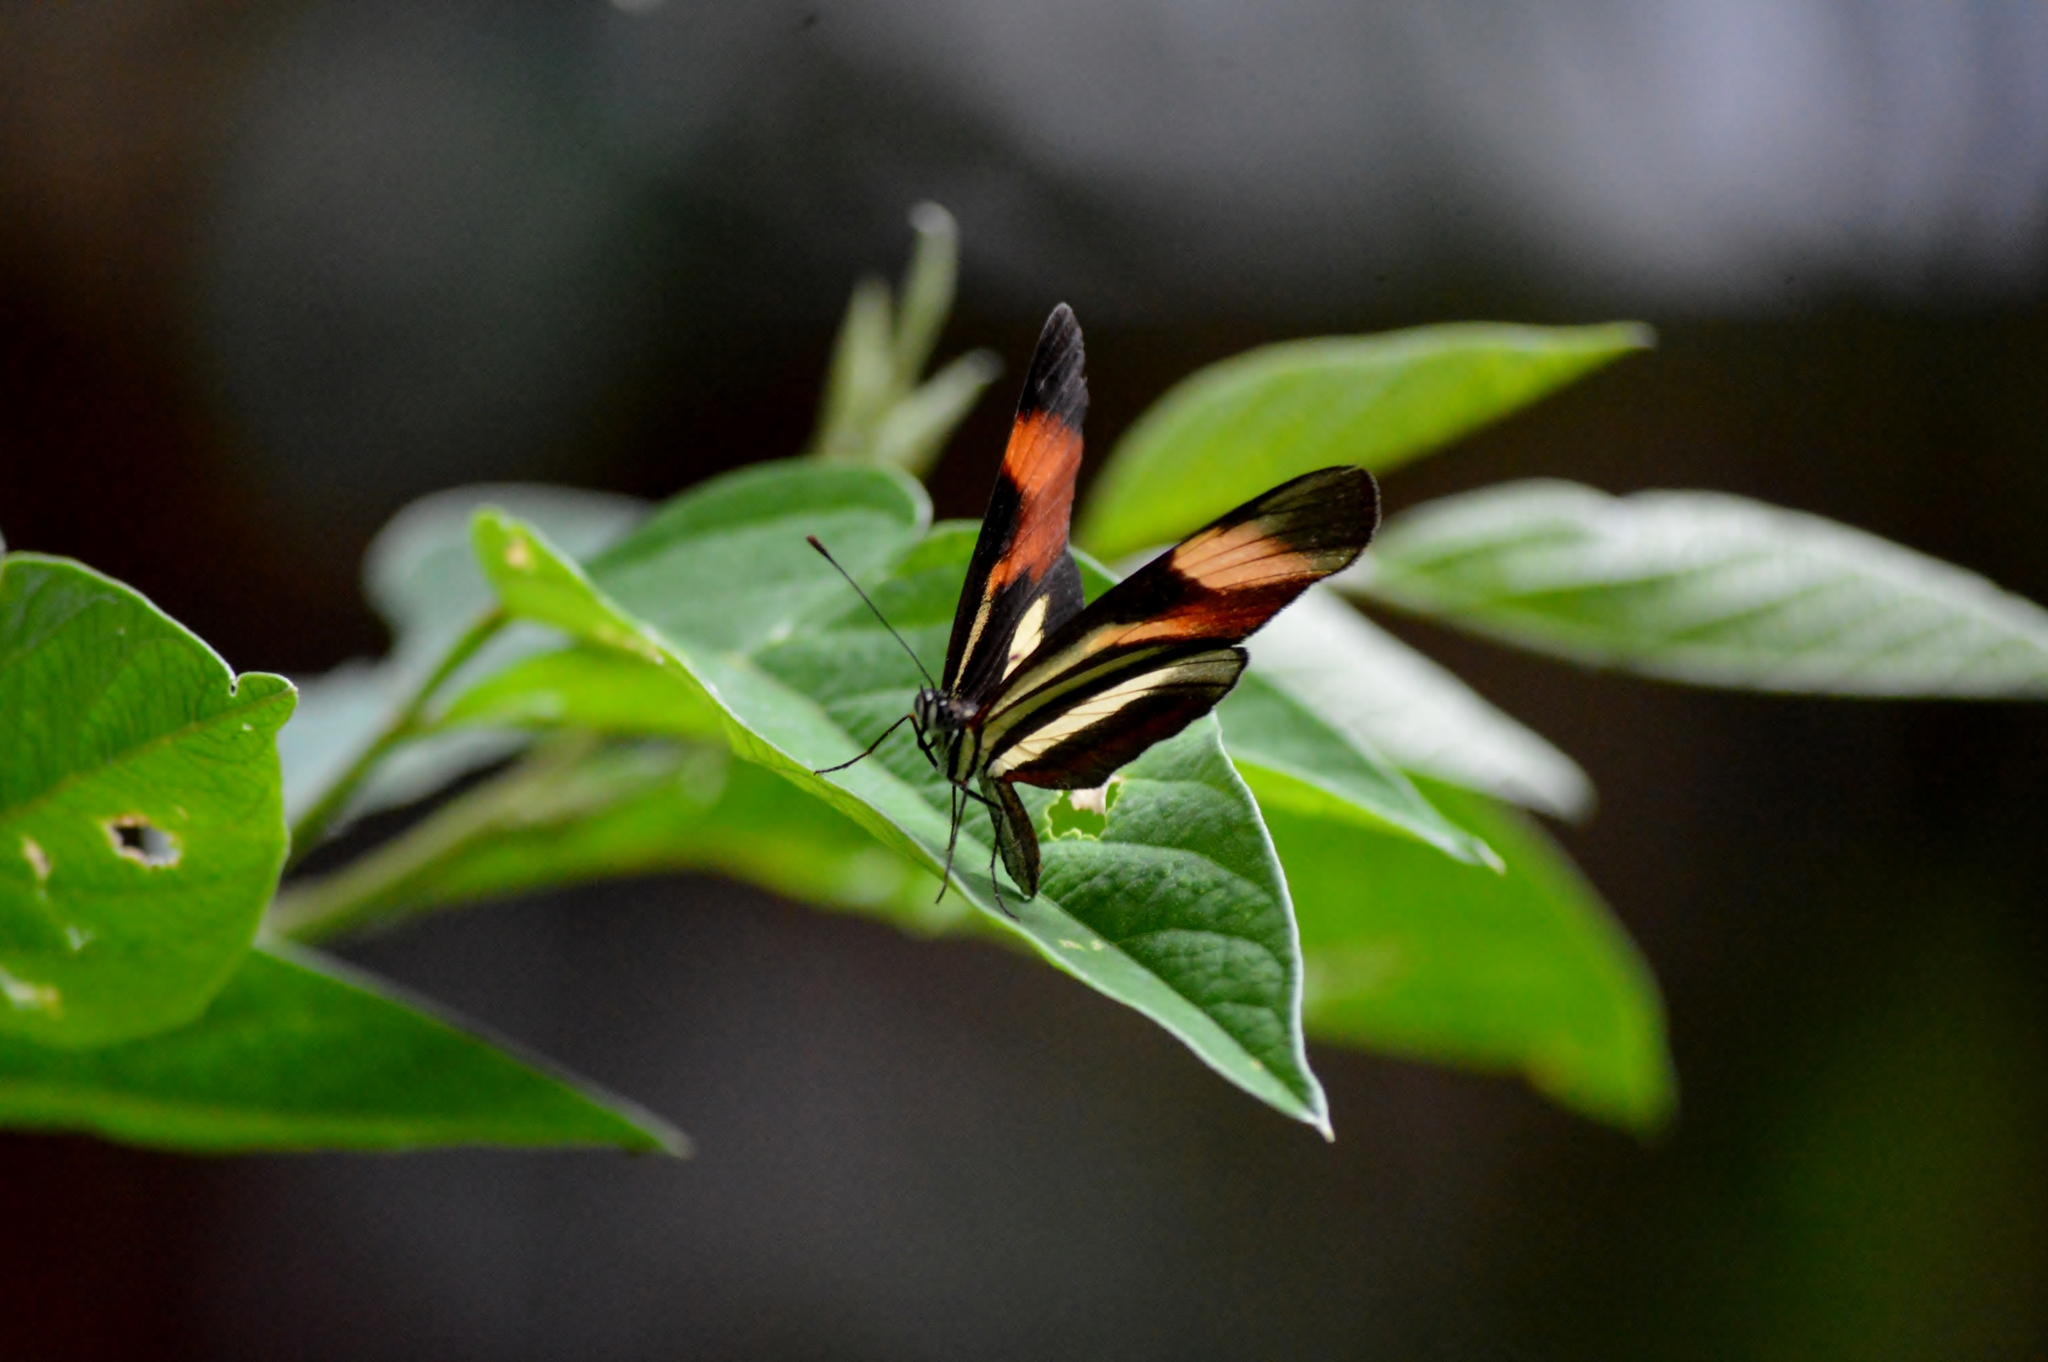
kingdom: Animalia
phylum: Arthropoda
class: Insecta
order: Lepidoptera
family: Nymphalidae
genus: Eresia
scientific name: Eresia lansdorfi
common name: Lansdorf's crescent
